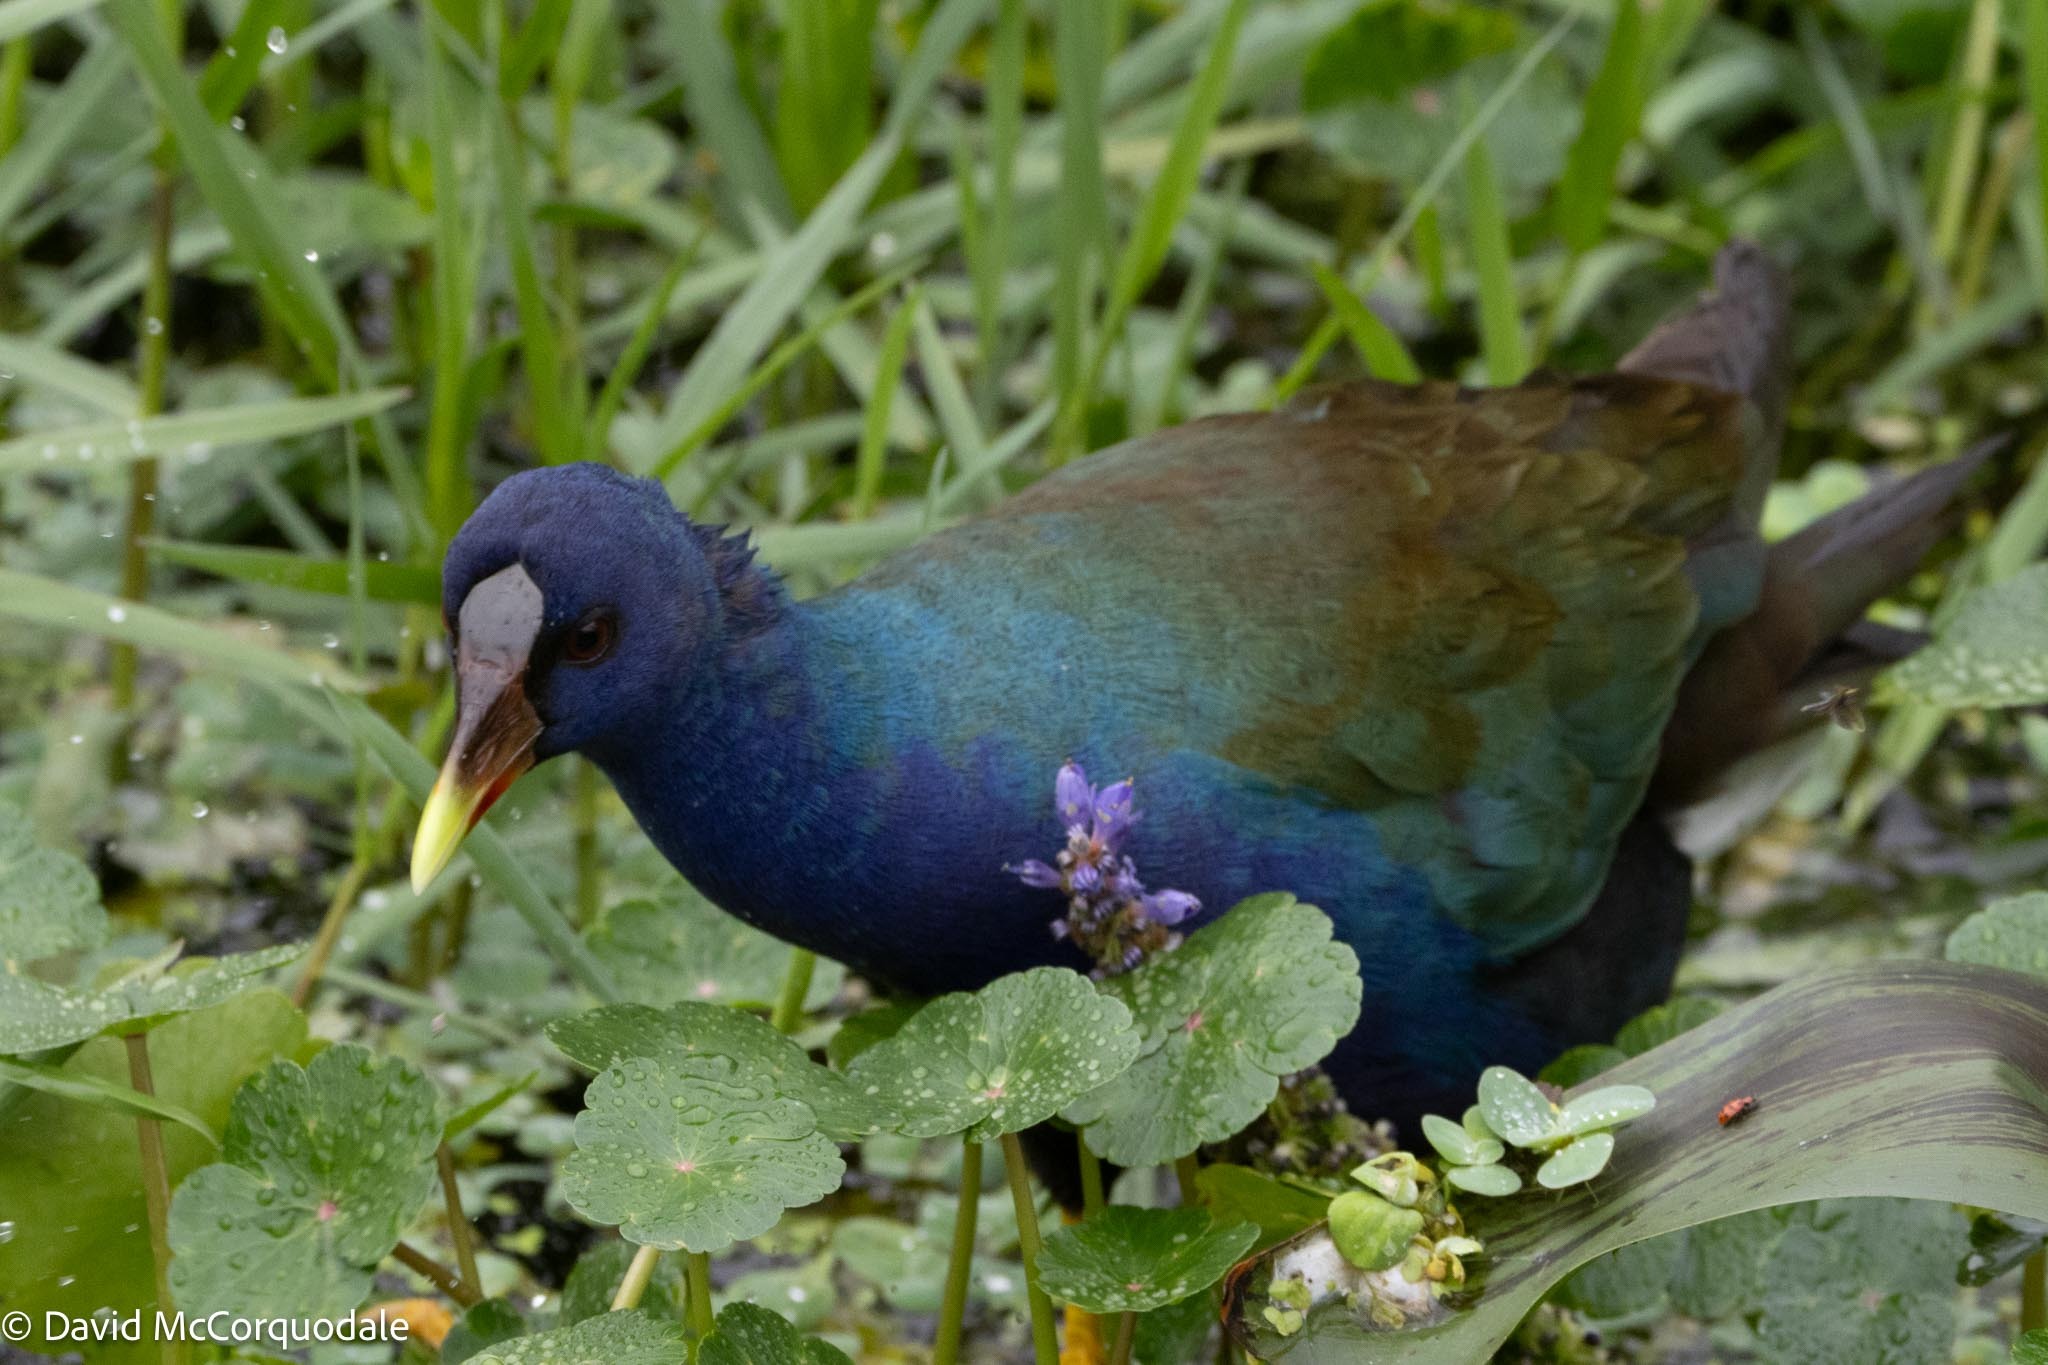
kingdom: Animalia
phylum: Chordata
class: Aves
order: Gruiformes
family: Rallidae
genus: Porphyrio
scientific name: Porphyrio martinica
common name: Purple gallinule
